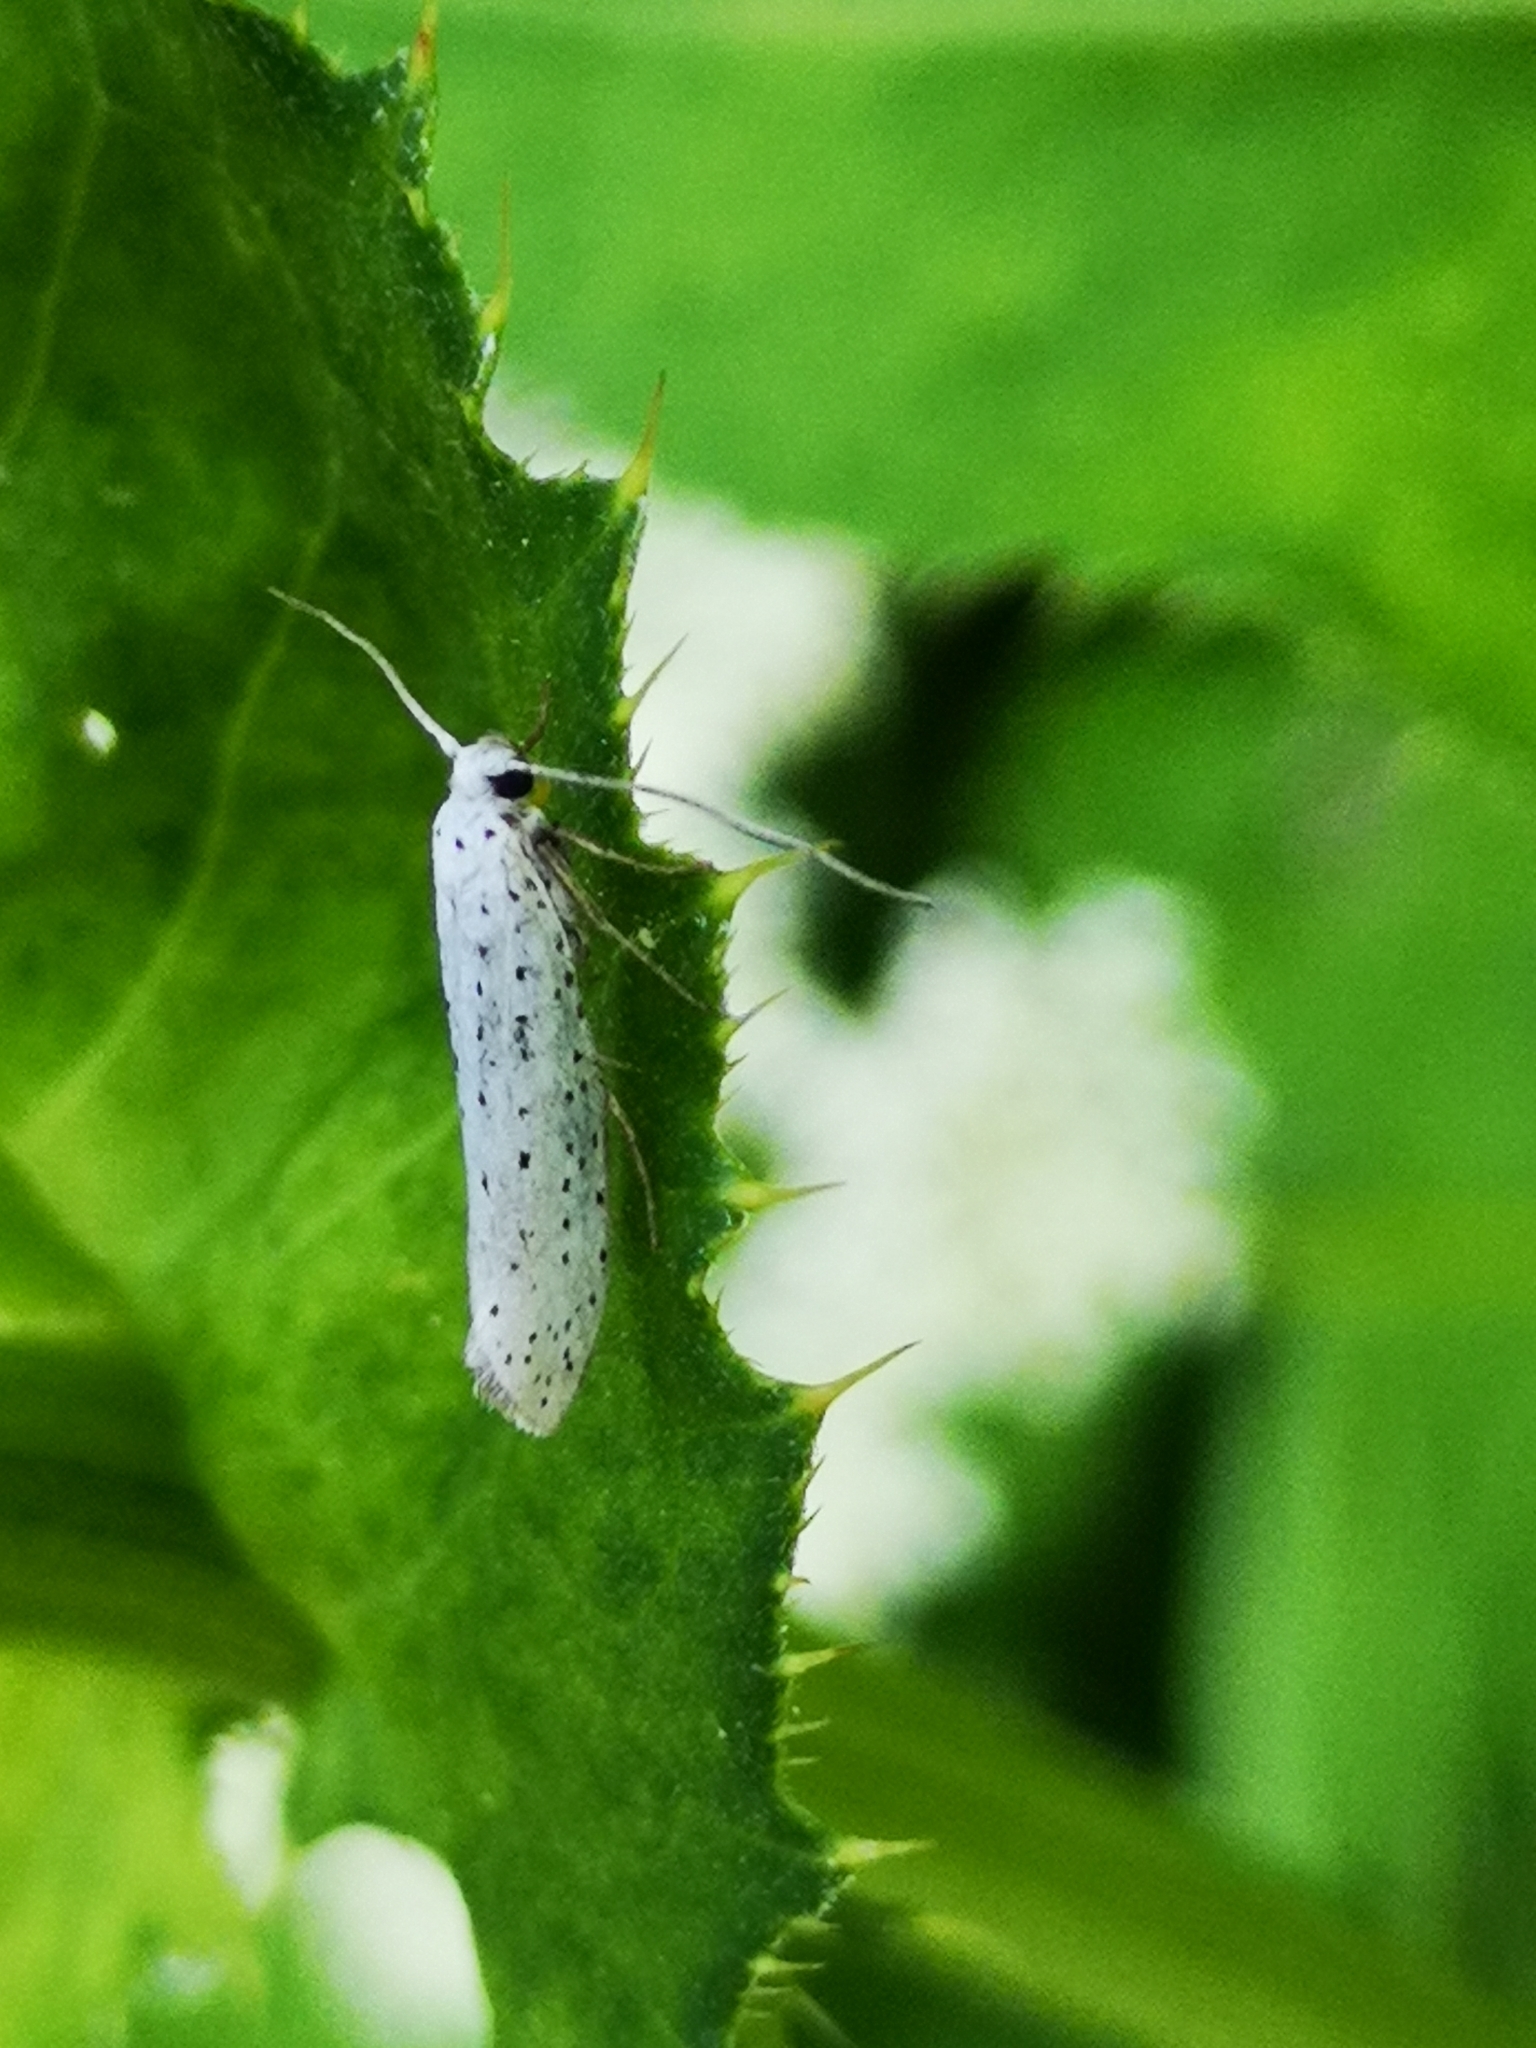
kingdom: Animalia
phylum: Arthropoda
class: Insecta
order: Lepidoptera
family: Yponomeutidae
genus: Yponomeuta
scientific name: Yponomeuta evonymella
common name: Bird-cherry ermine
